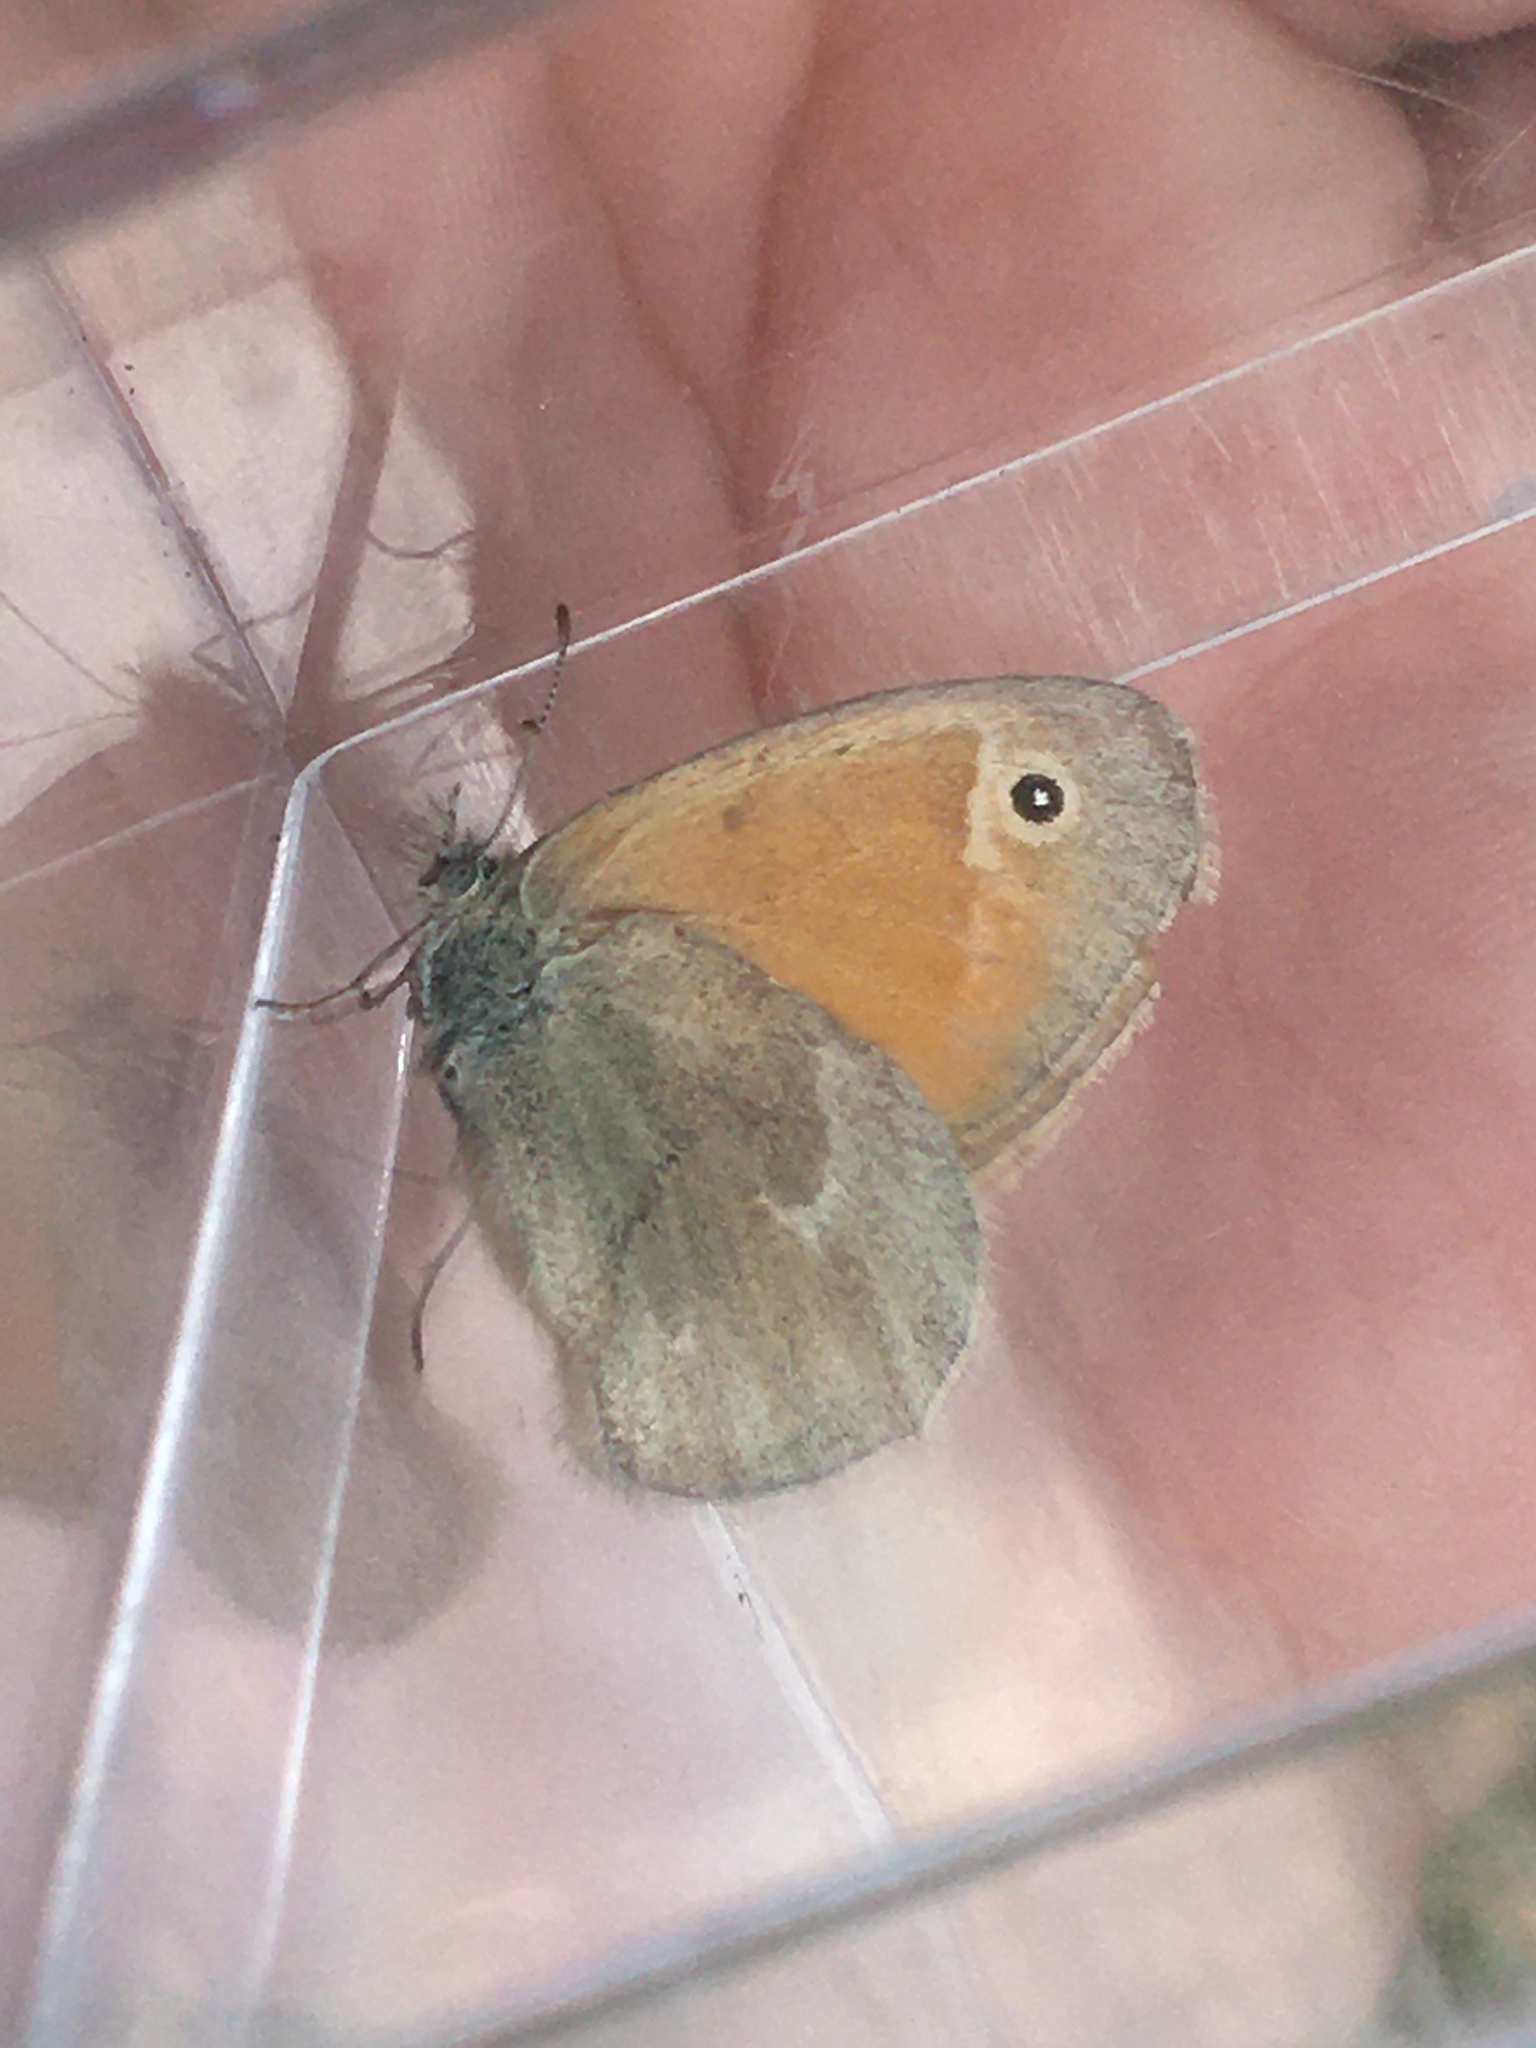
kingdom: Animalia
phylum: Arthropoda
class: Insecta
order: Lepidoptera
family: Nymphalidae
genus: Coenonympha
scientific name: Coenonympha california
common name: Common ringlet
